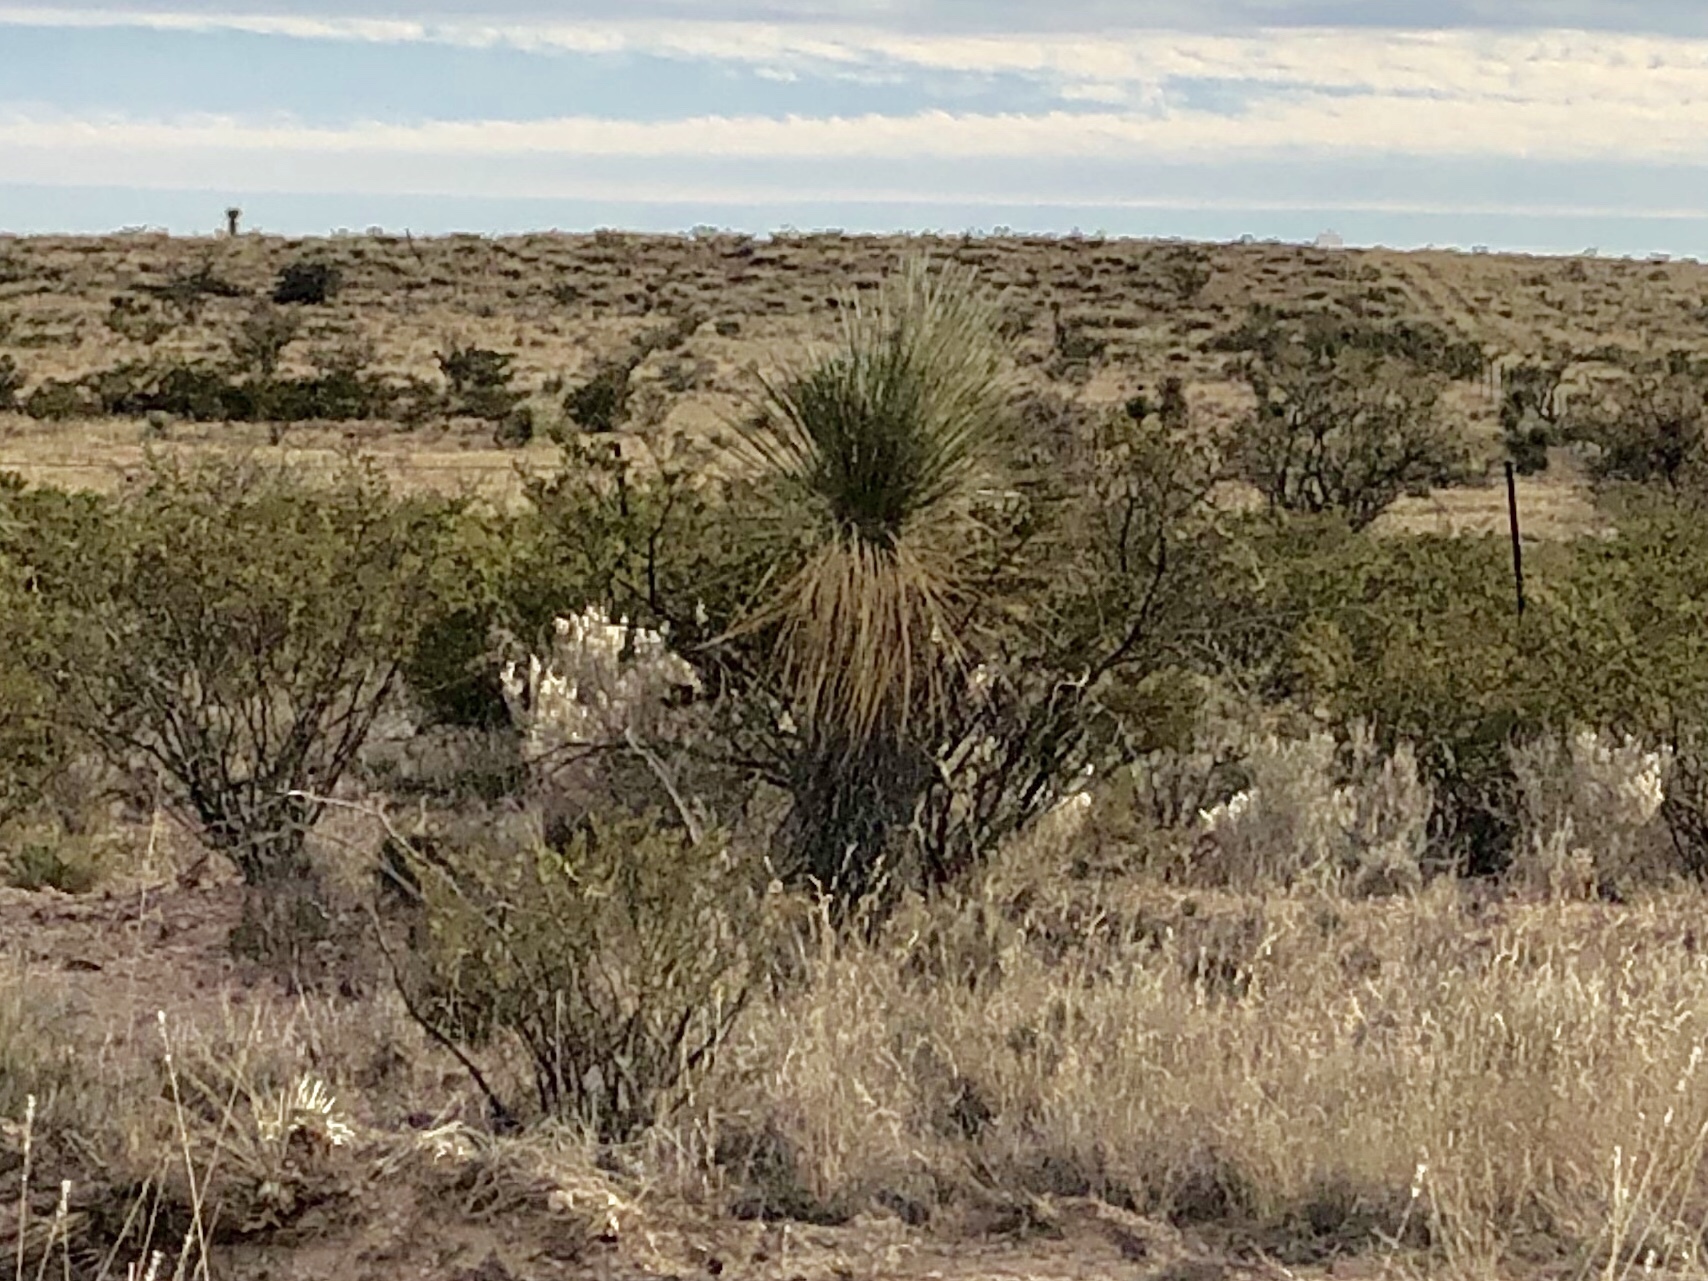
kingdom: Plantae
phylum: Tracheophyta
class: Liliopsida
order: Asparagales
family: Asparagaceae
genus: Yucca
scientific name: Yucca elata
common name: Palmella
